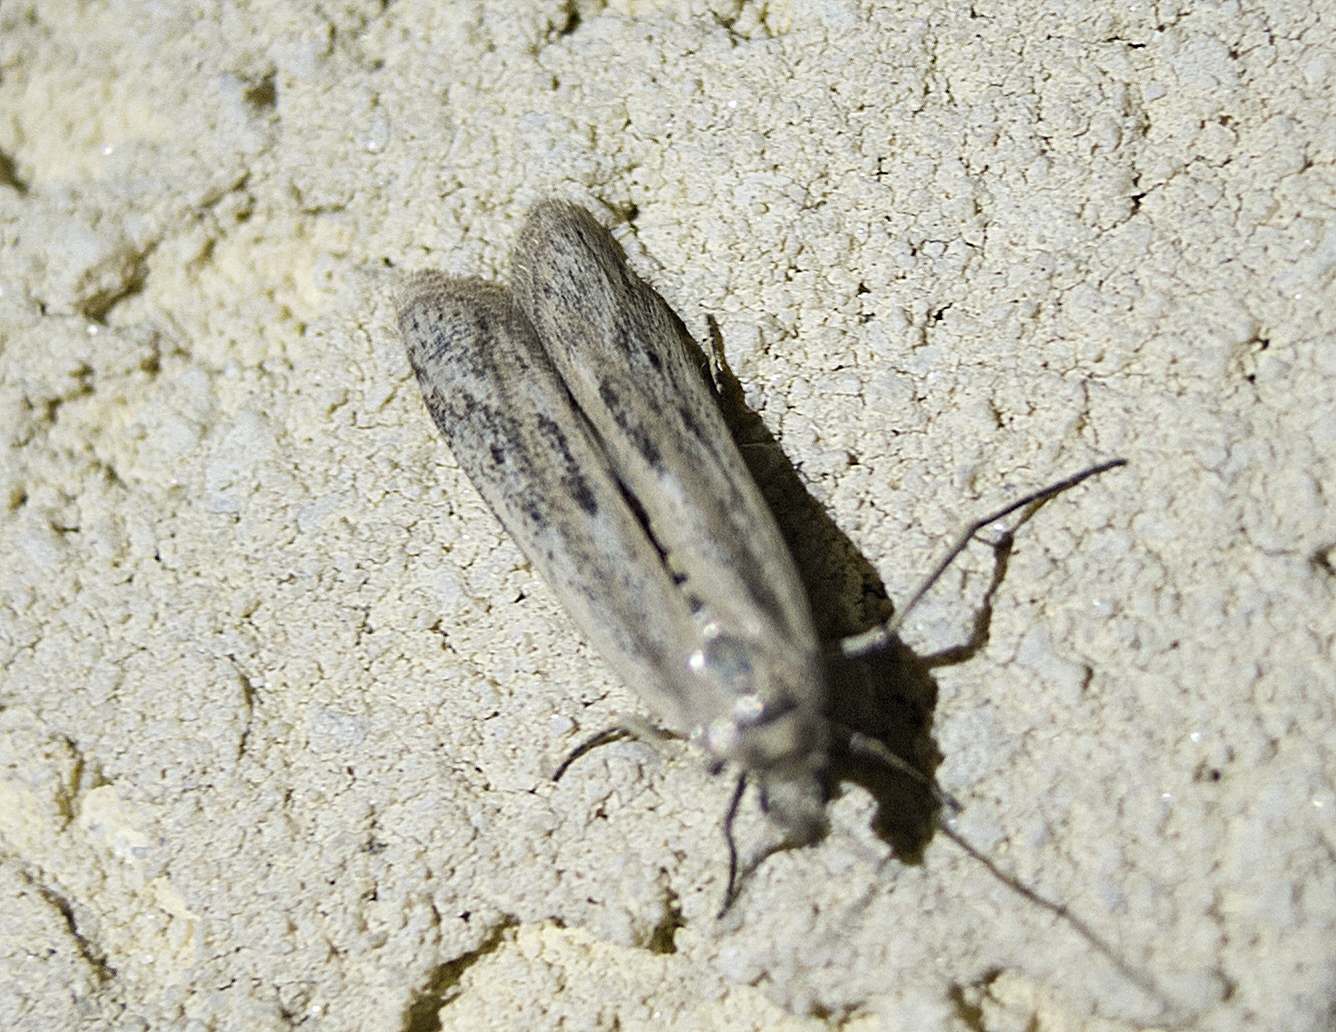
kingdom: Animalia
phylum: Arthropoda
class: Insecta
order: Lepidoptera
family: Pyralidae
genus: Homoeosoma
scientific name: Homoeosoma
